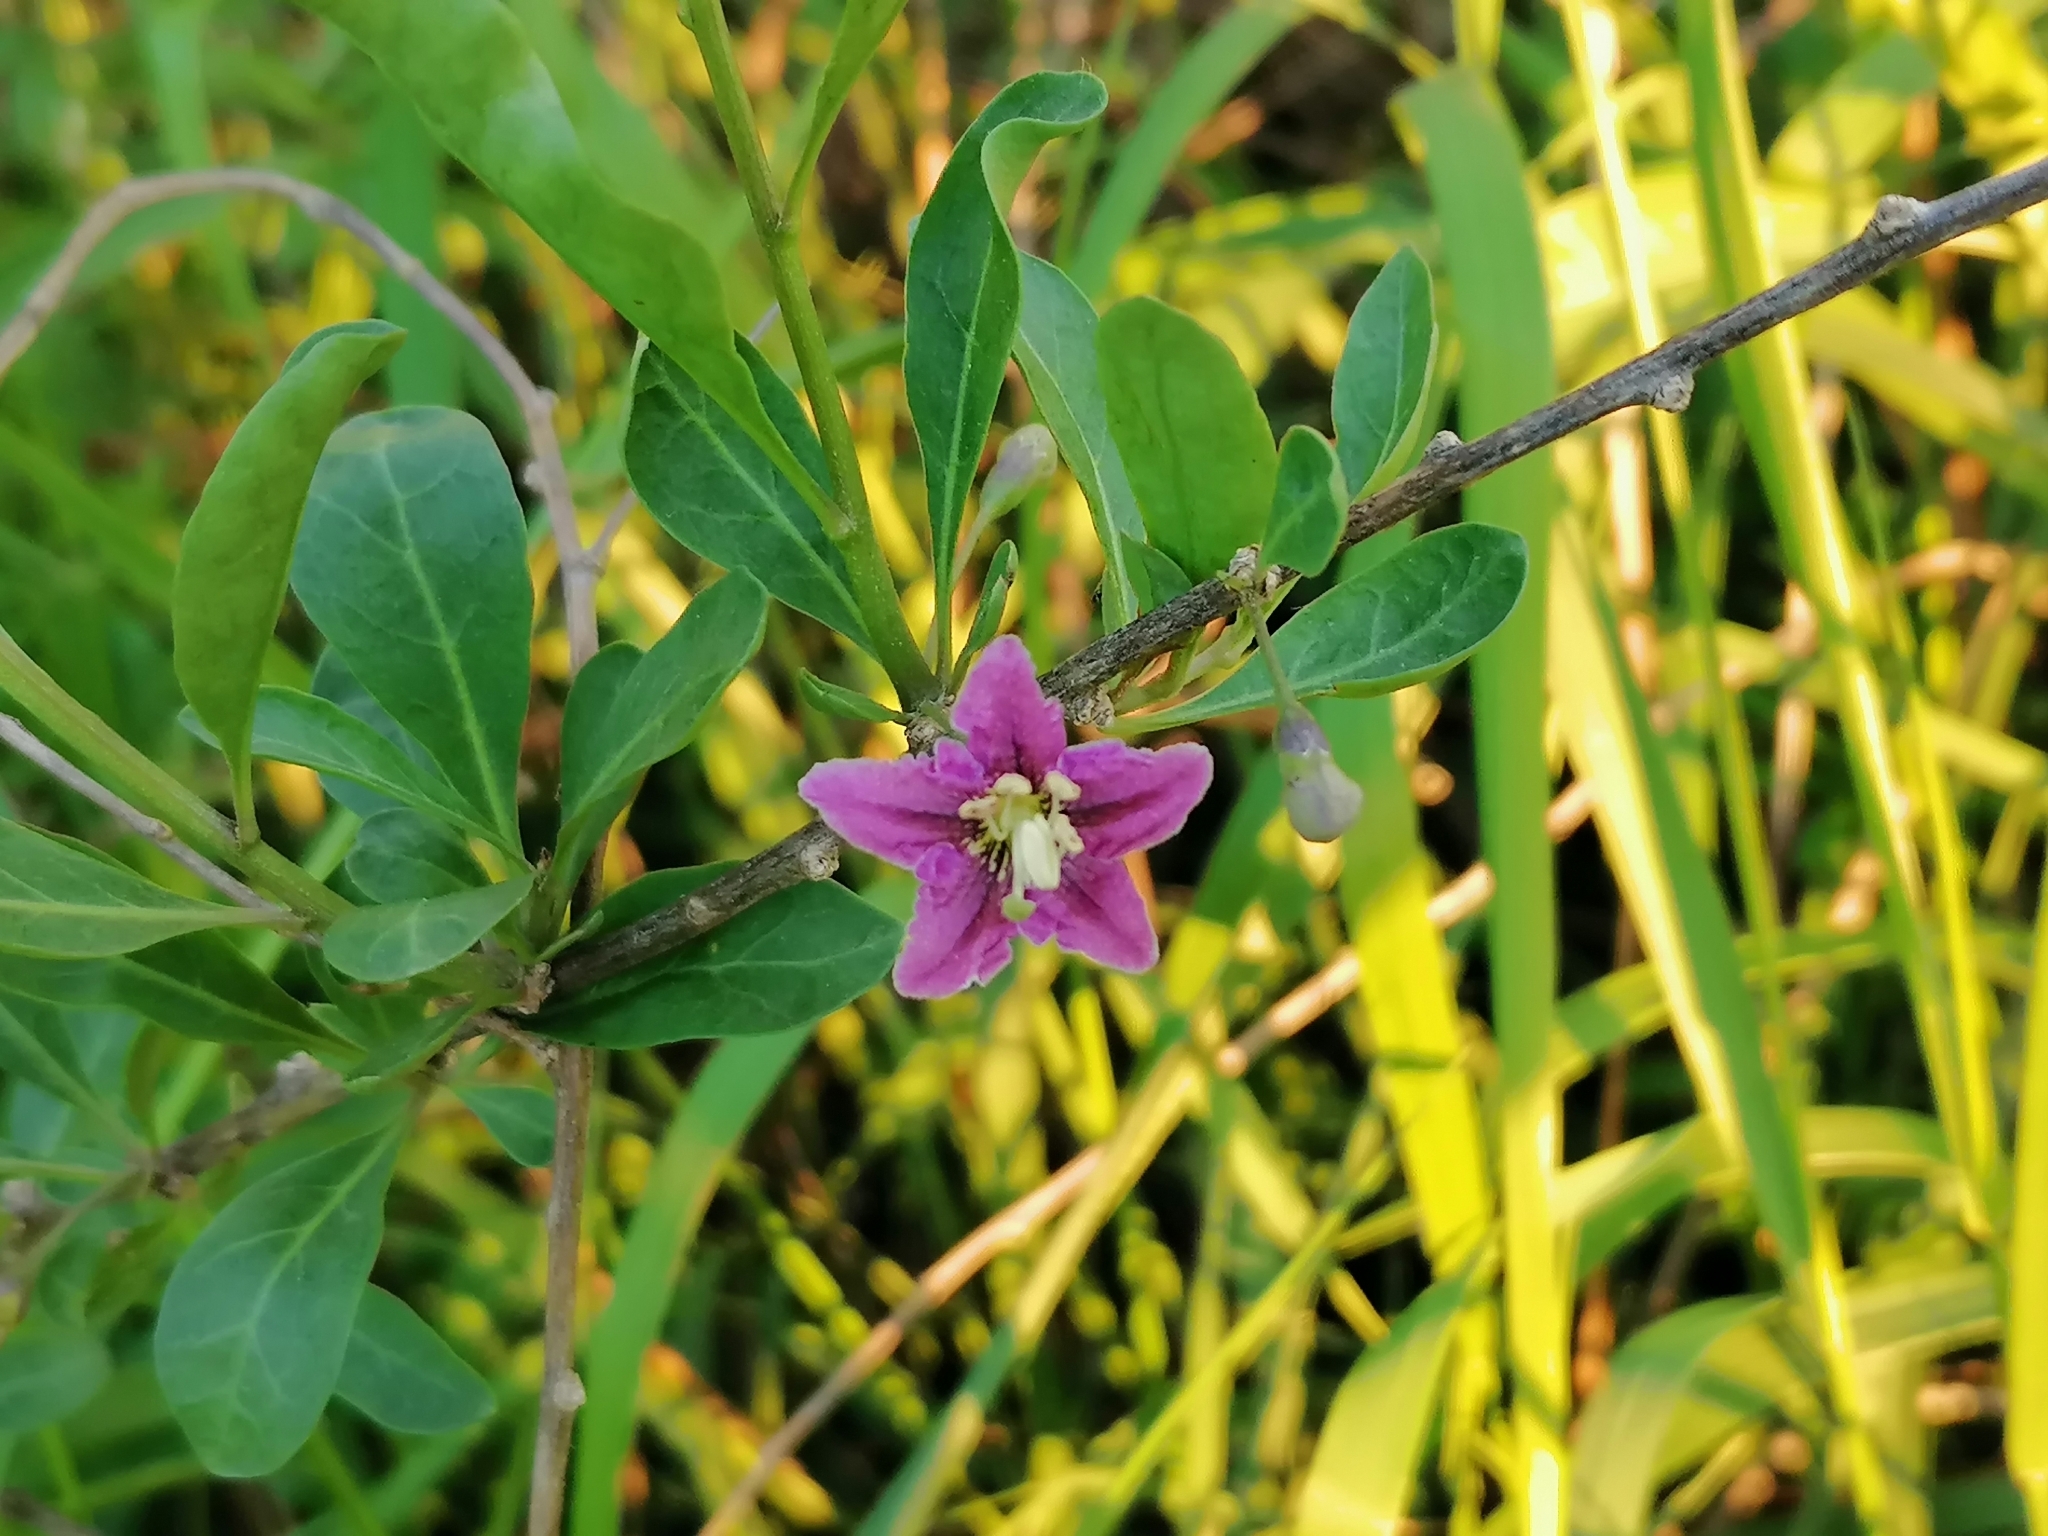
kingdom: Plantae
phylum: Tracheophyta
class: Magnoliopsida
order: Solanales
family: Solanaceae
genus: Lycium
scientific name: Lycium barbarum
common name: Duke of argyll's teaplant
